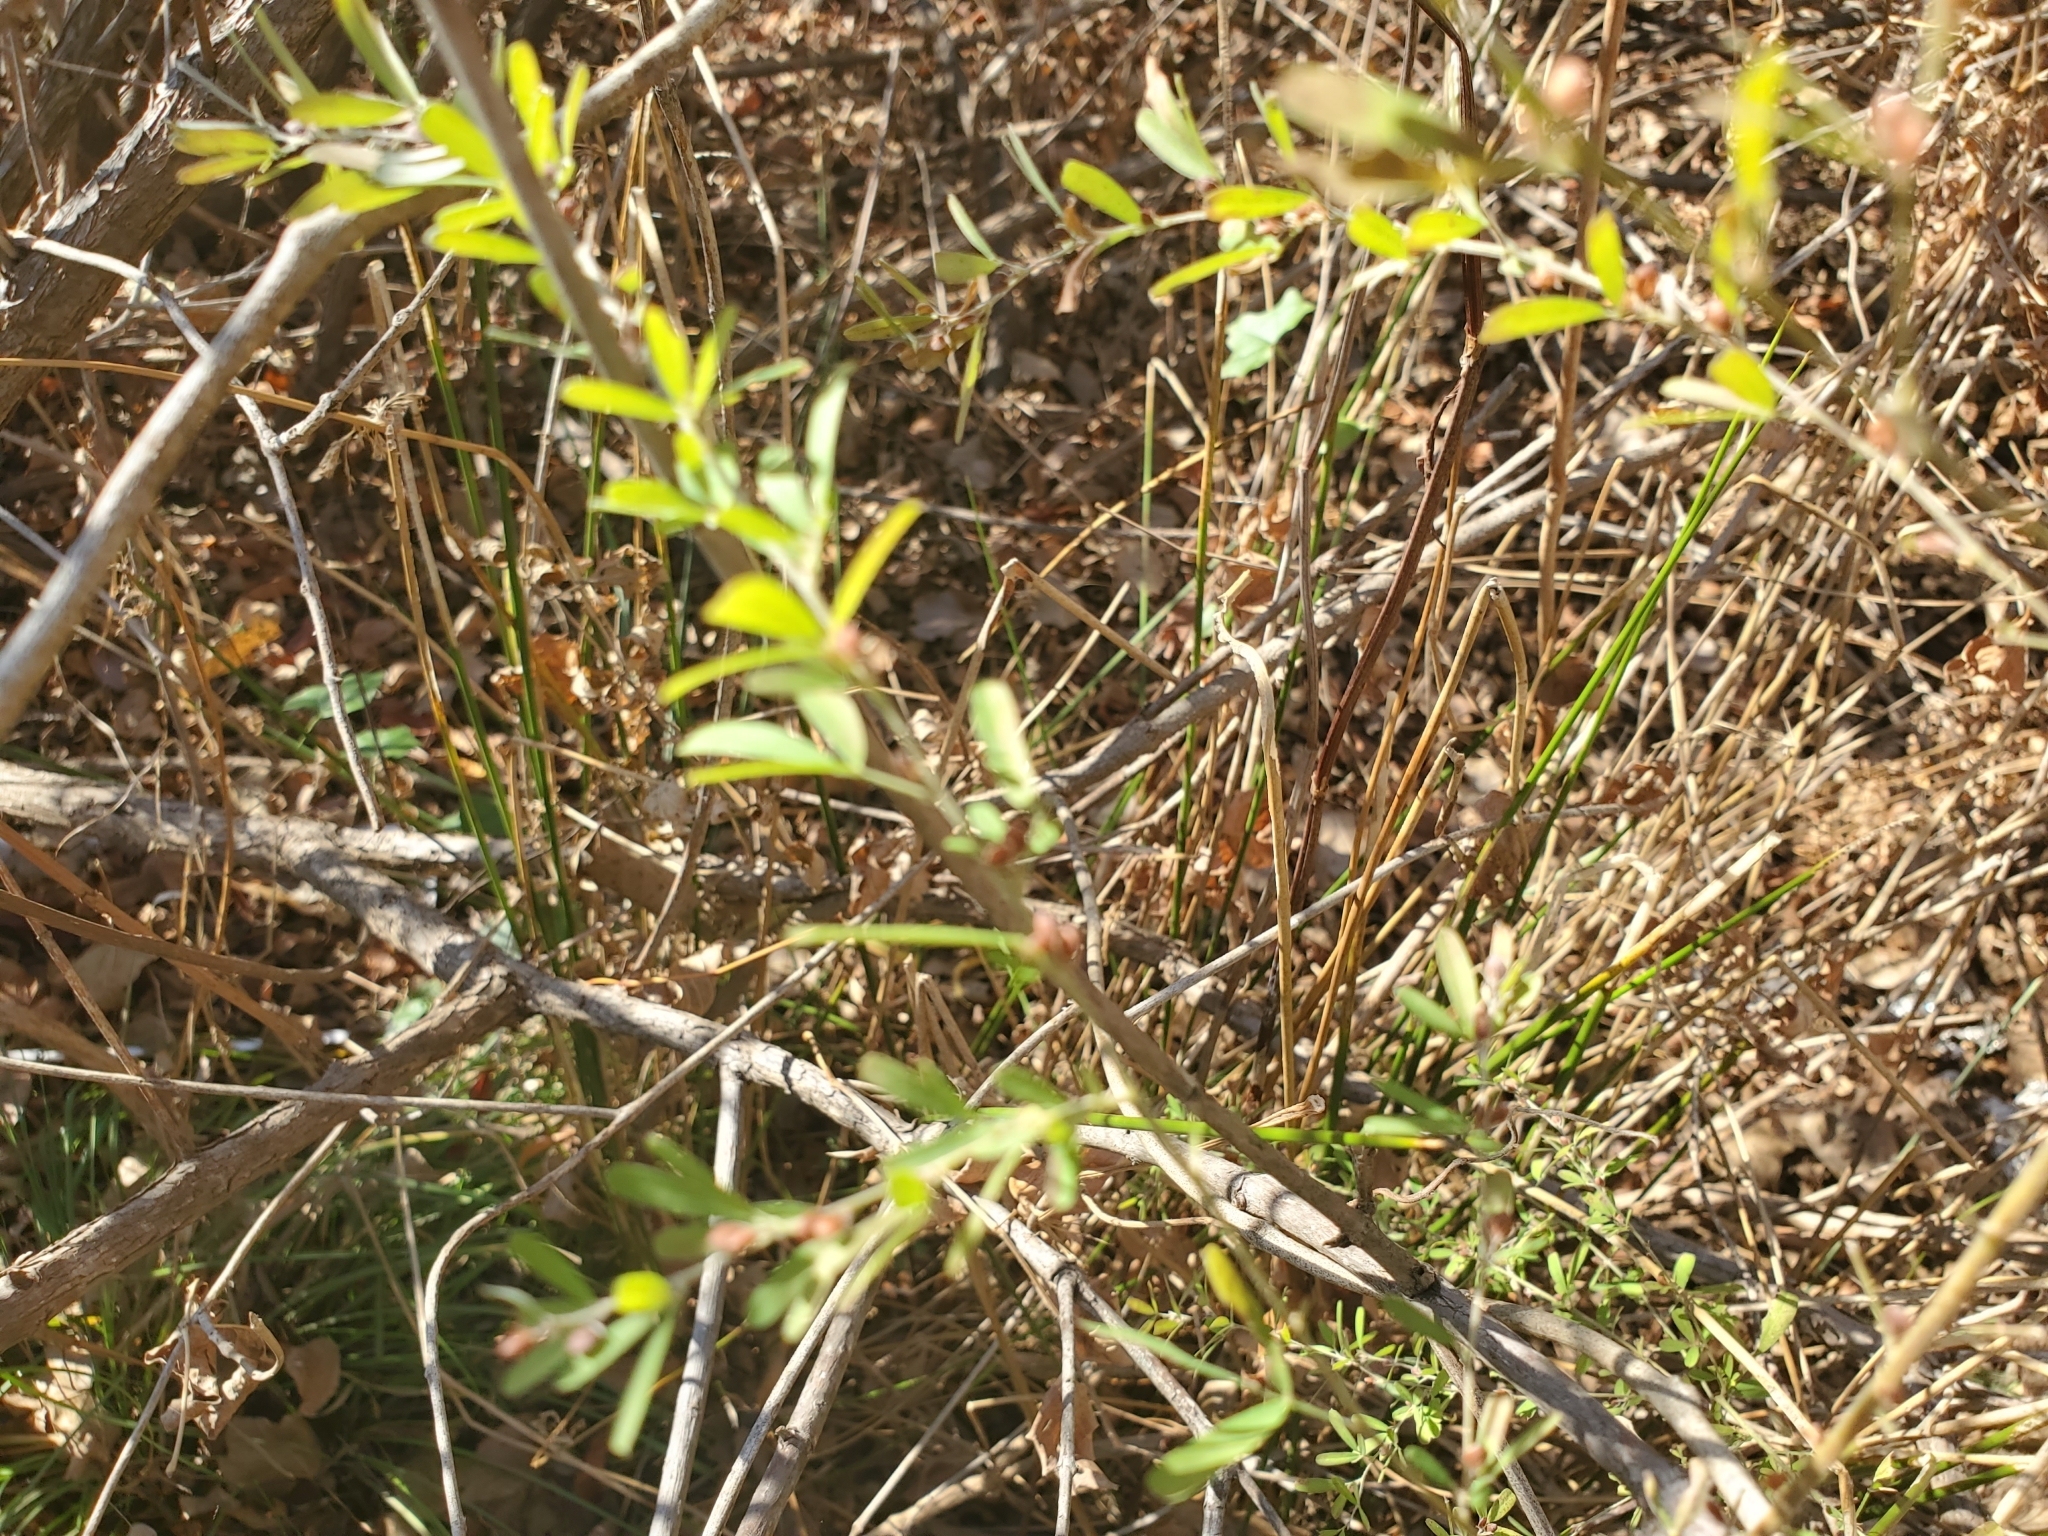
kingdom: Plantae
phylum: Tracheophyta
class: Magnoliopsida
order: Fabales
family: Fabaceae
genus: Lespedeza
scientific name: Lespedeza cuneata
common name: Chinese bush-clover
